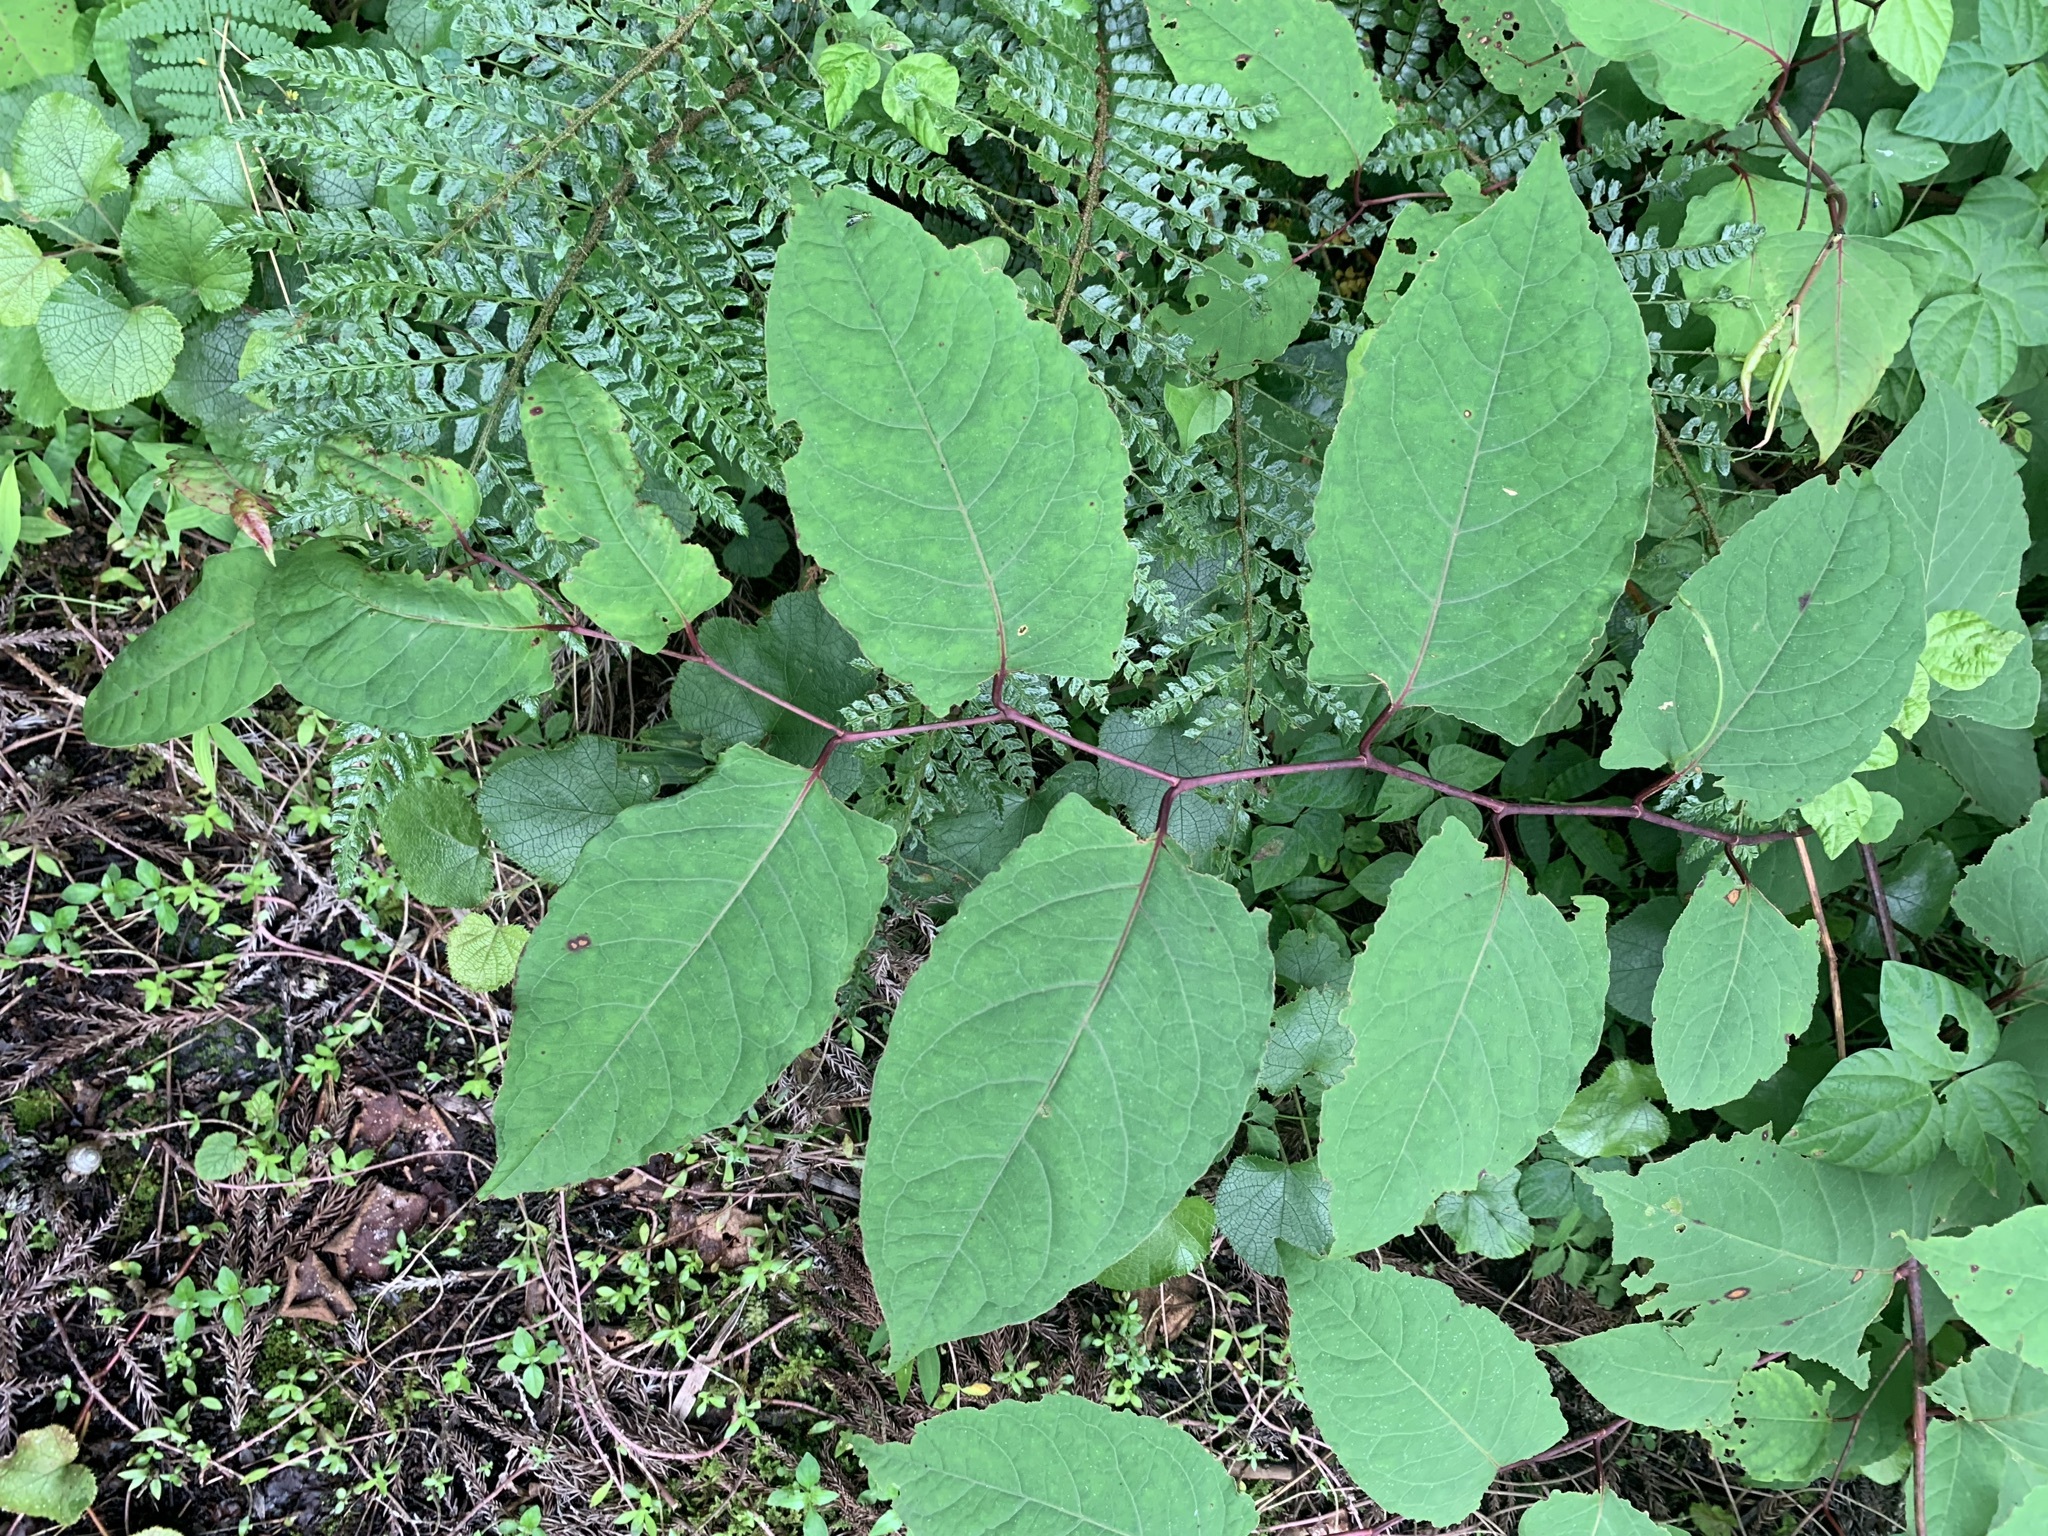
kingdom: Plantae
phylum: Tracheophyta
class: Magnoliopsida
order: Caryophyllales
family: Polygonaceae
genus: Reynoutria
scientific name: Reynoutria japonica
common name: Japanese knotweed
